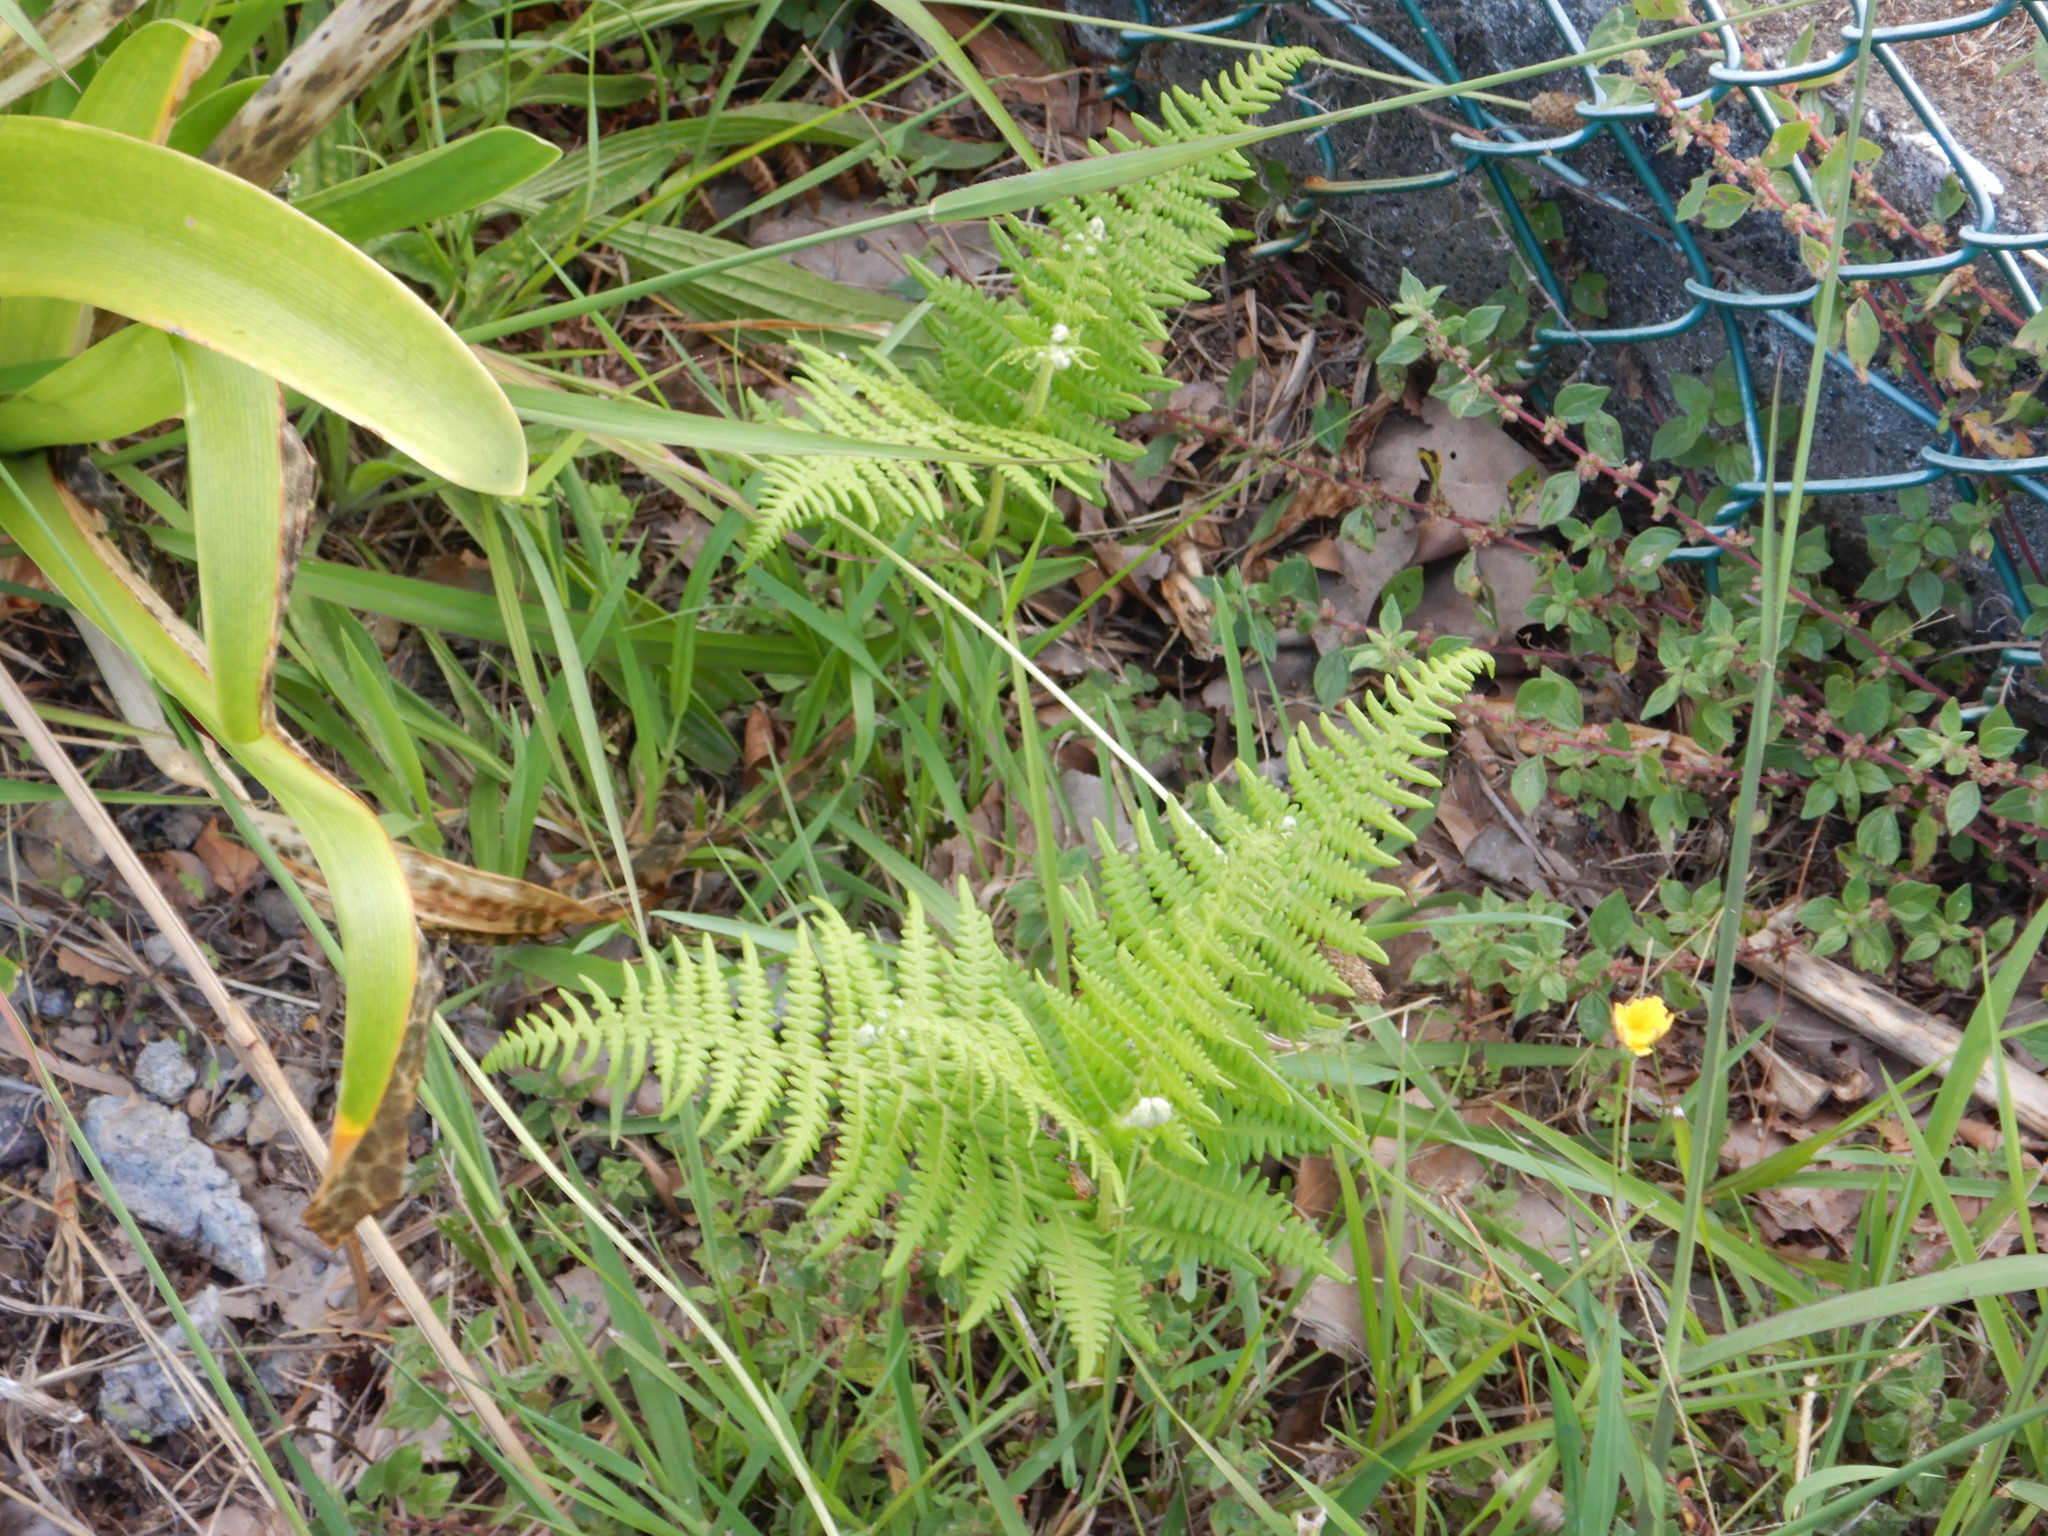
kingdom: Plantae
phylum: Tracheophyta
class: Polypodiopsida
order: Polypodiales
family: Dennstaedtiaceae
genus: Pteridium
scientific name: Pteridium aquilinum
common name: Bracken
